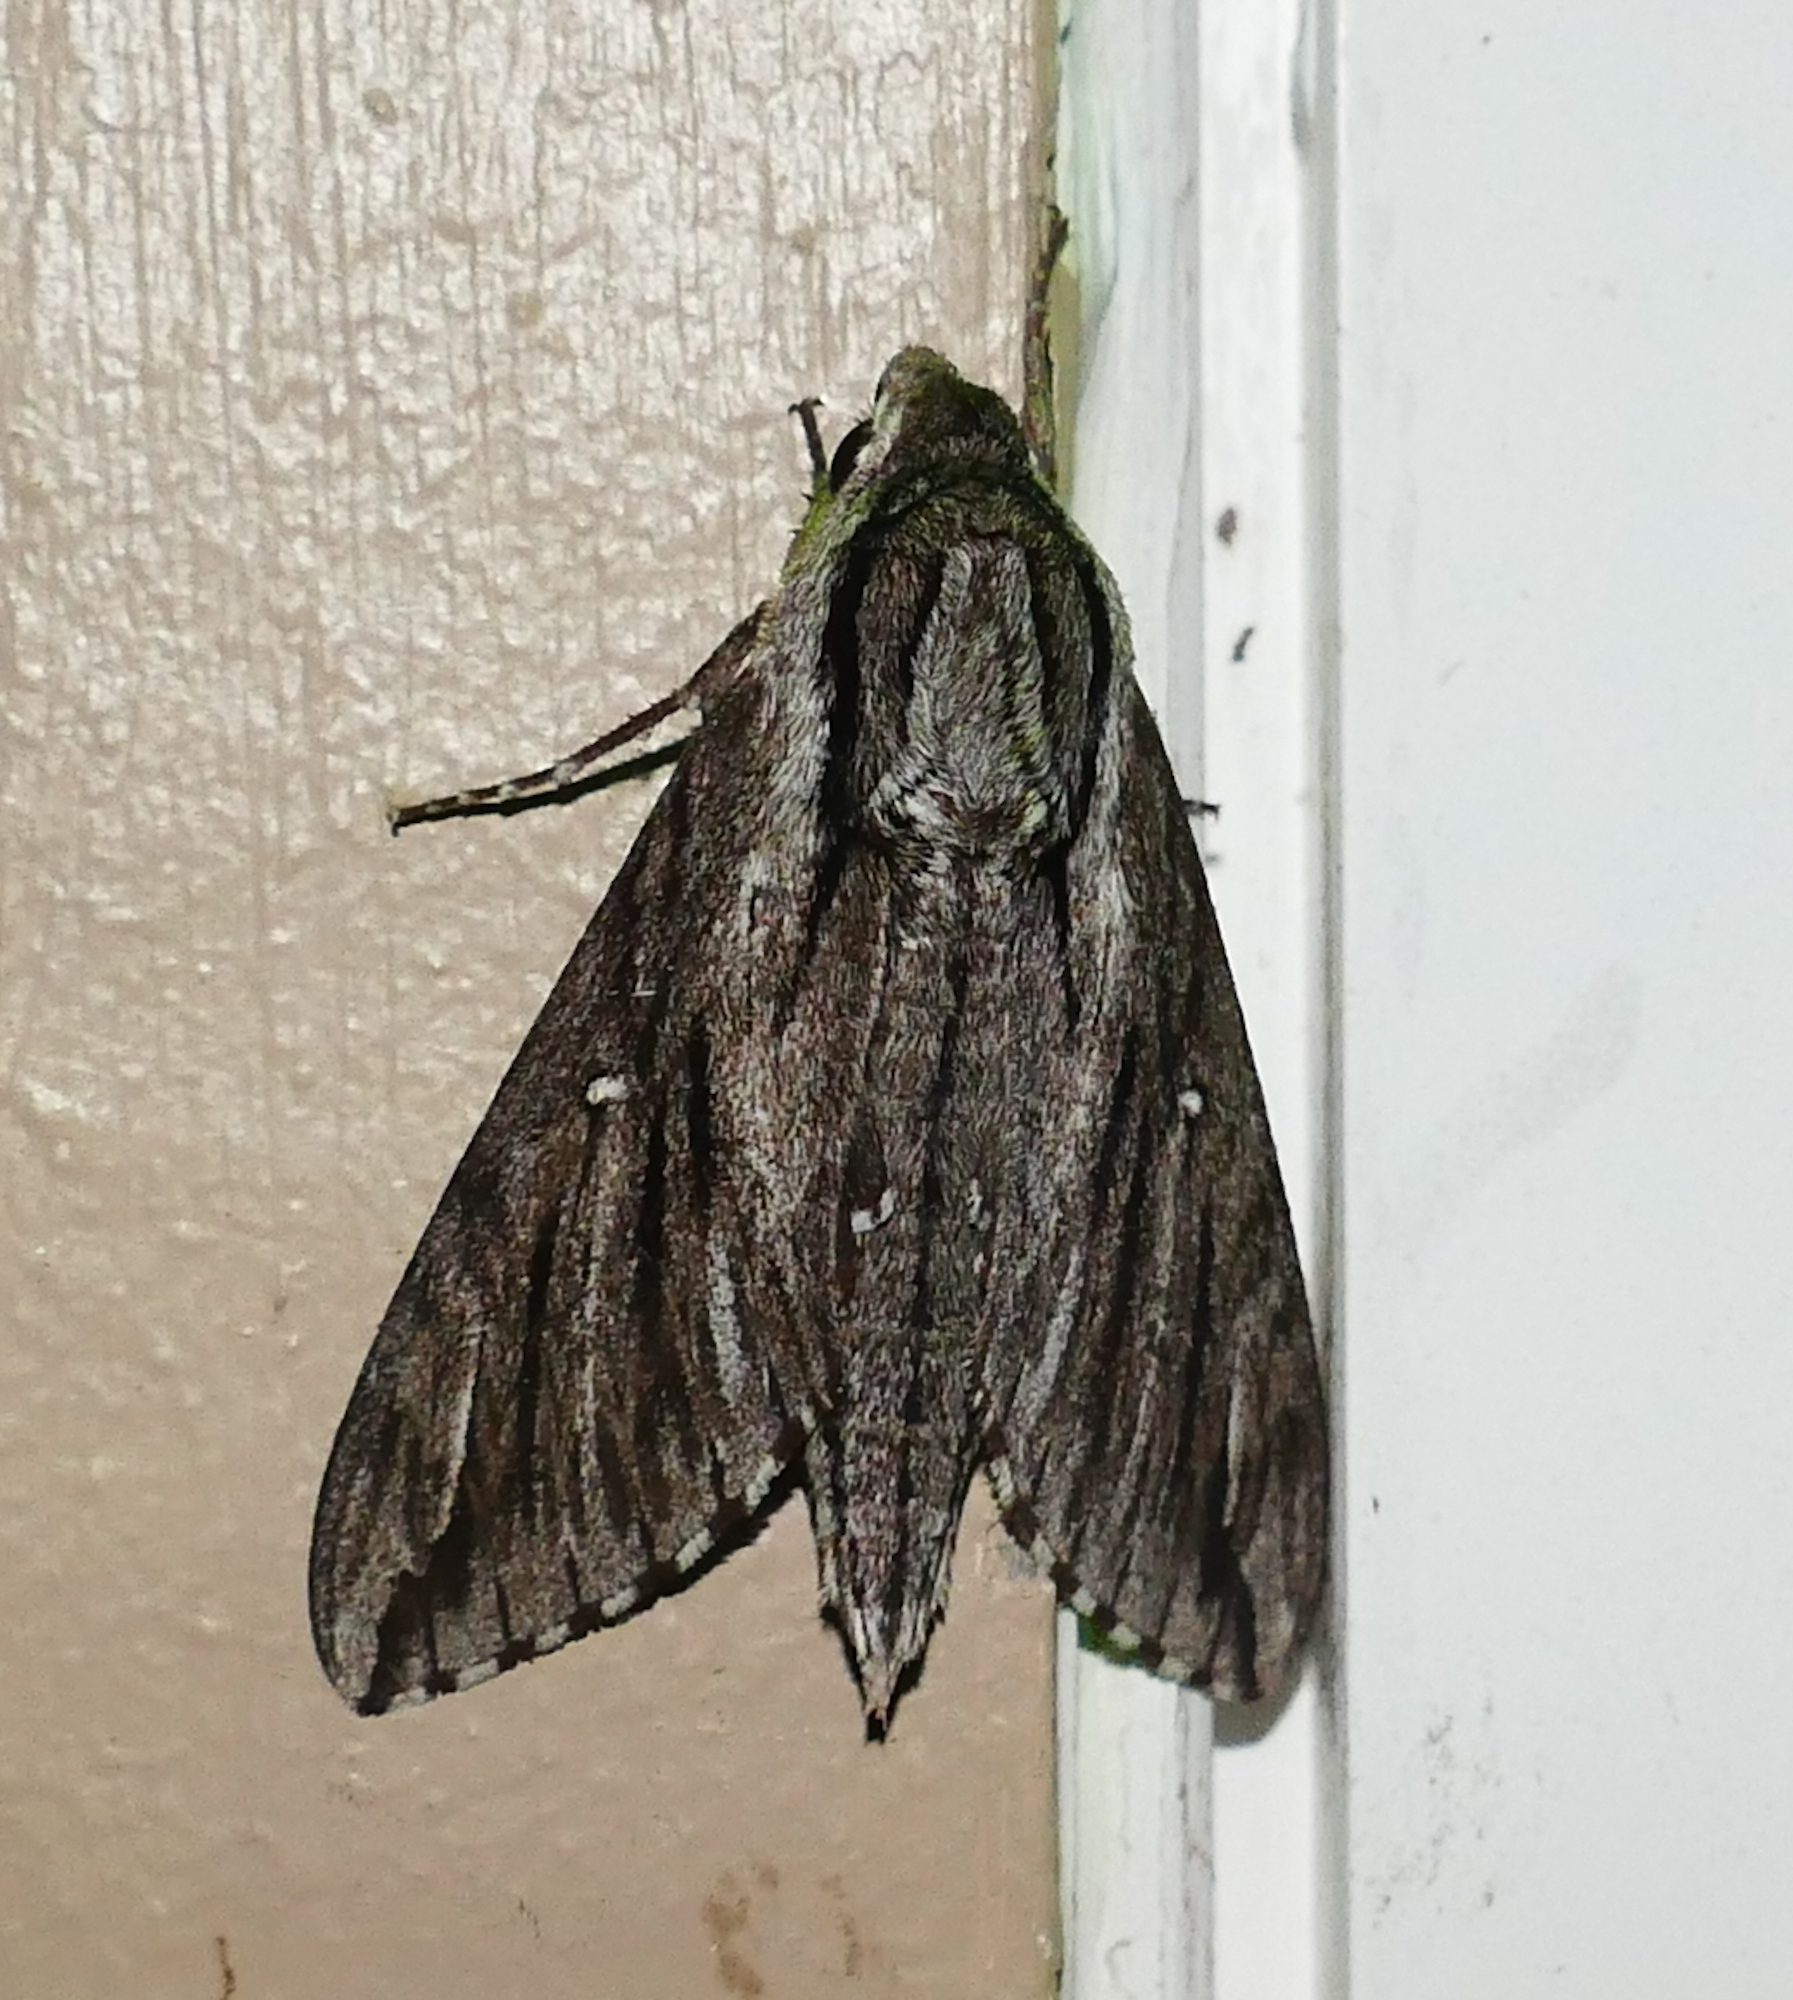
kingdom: Animalia
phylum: Arthropoda
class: Insecta
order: Lepidoptera
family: Sphingidae
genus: Paratrea
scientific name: Paratrea plebeja
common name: Plebian sphinx
